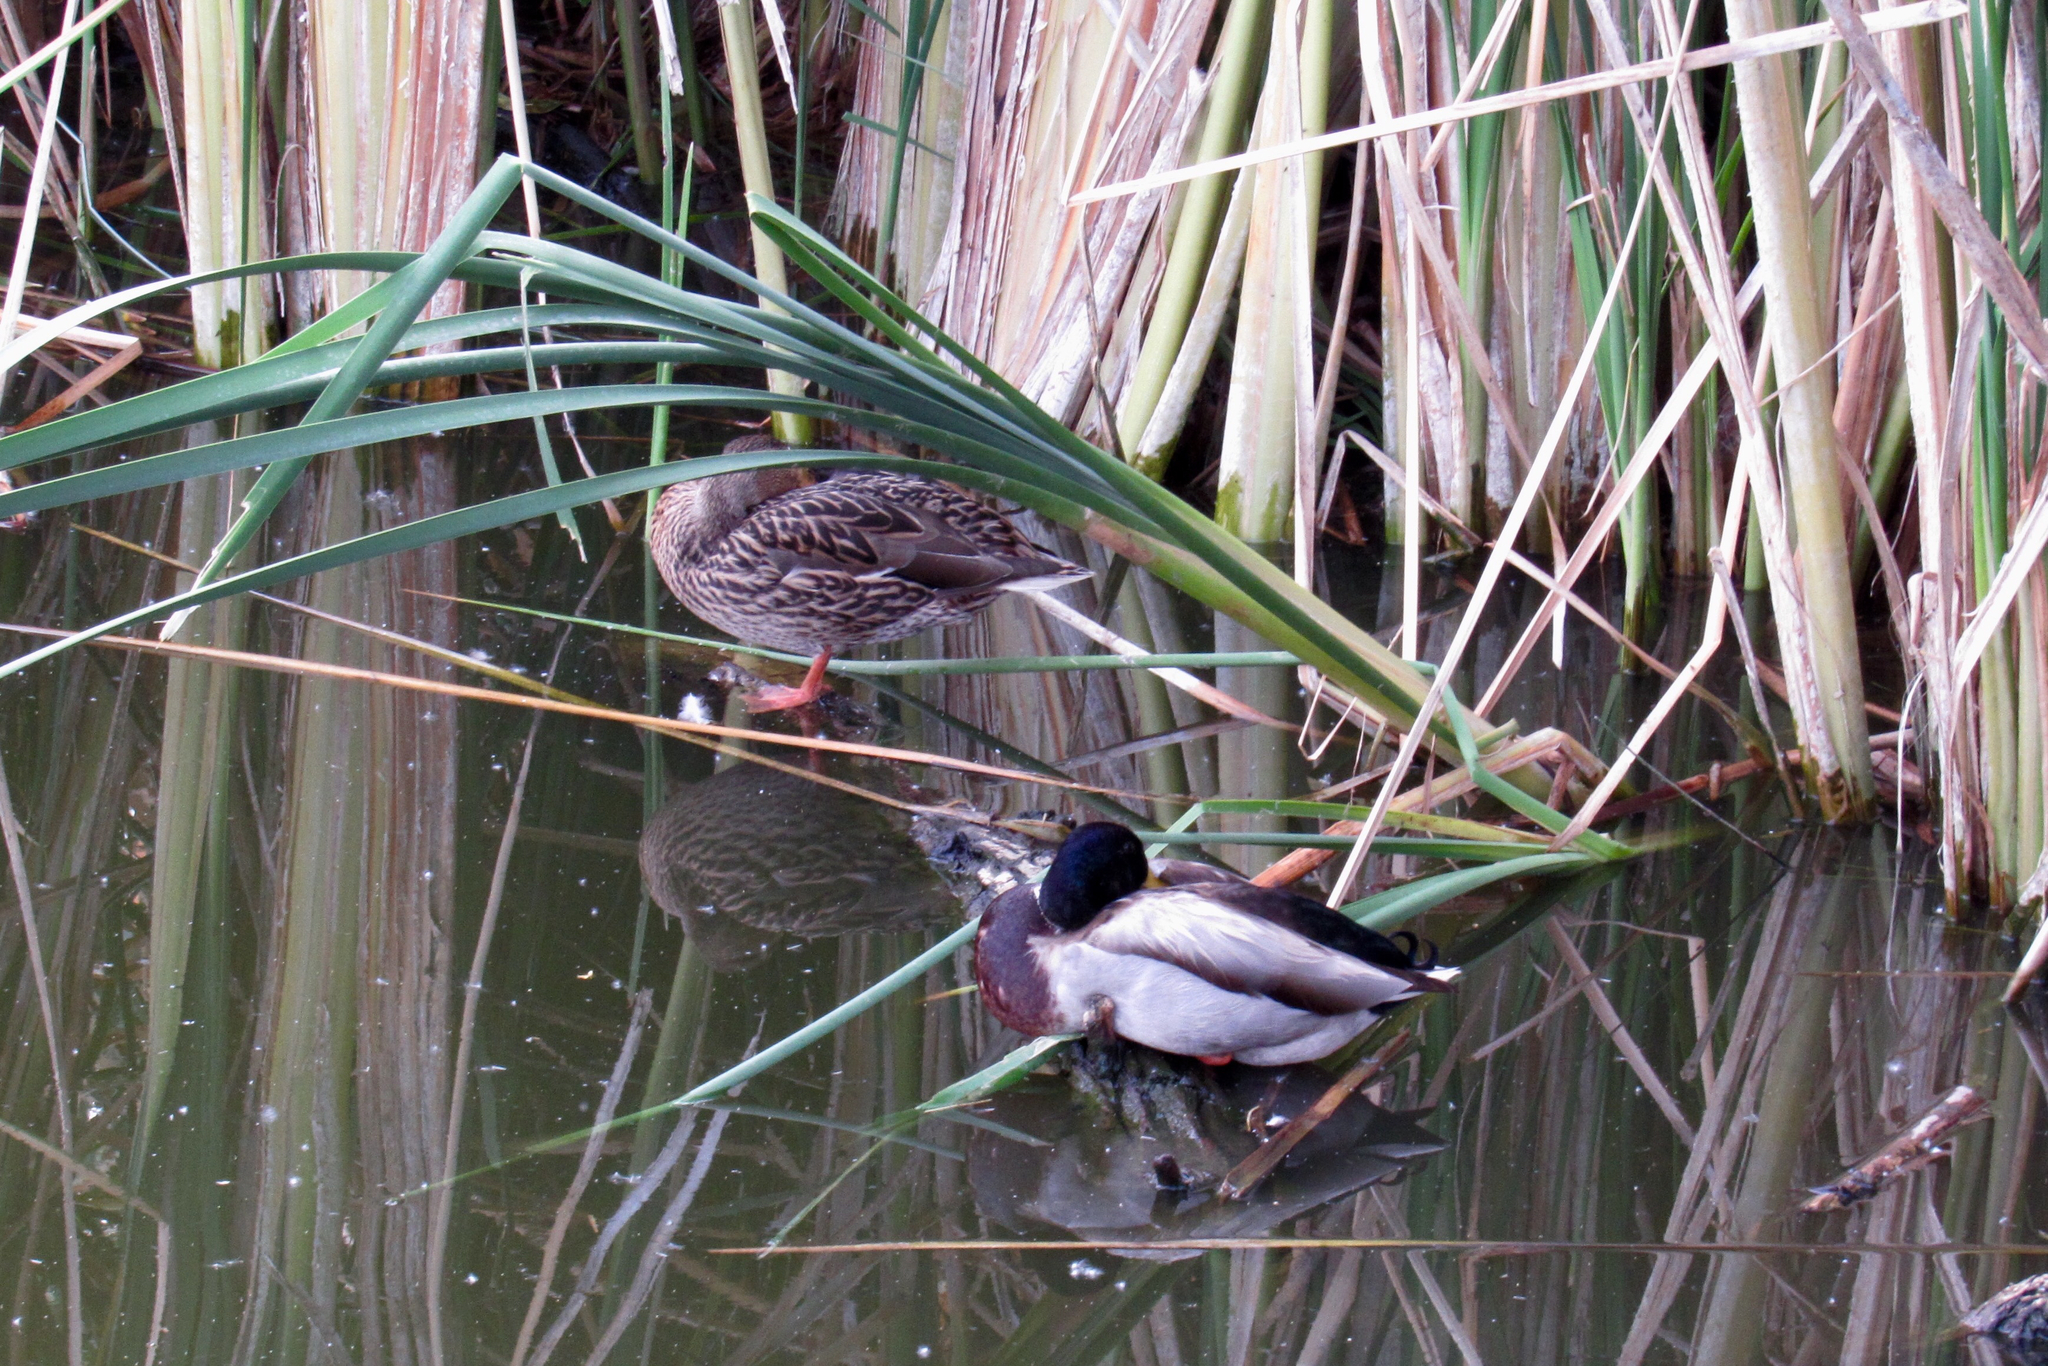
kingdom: Animalia
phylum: Chordata
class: Aves
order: Anseriformes
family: Anatidae
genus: Anas
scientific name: Anas platyrhynchos
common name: Mallard
